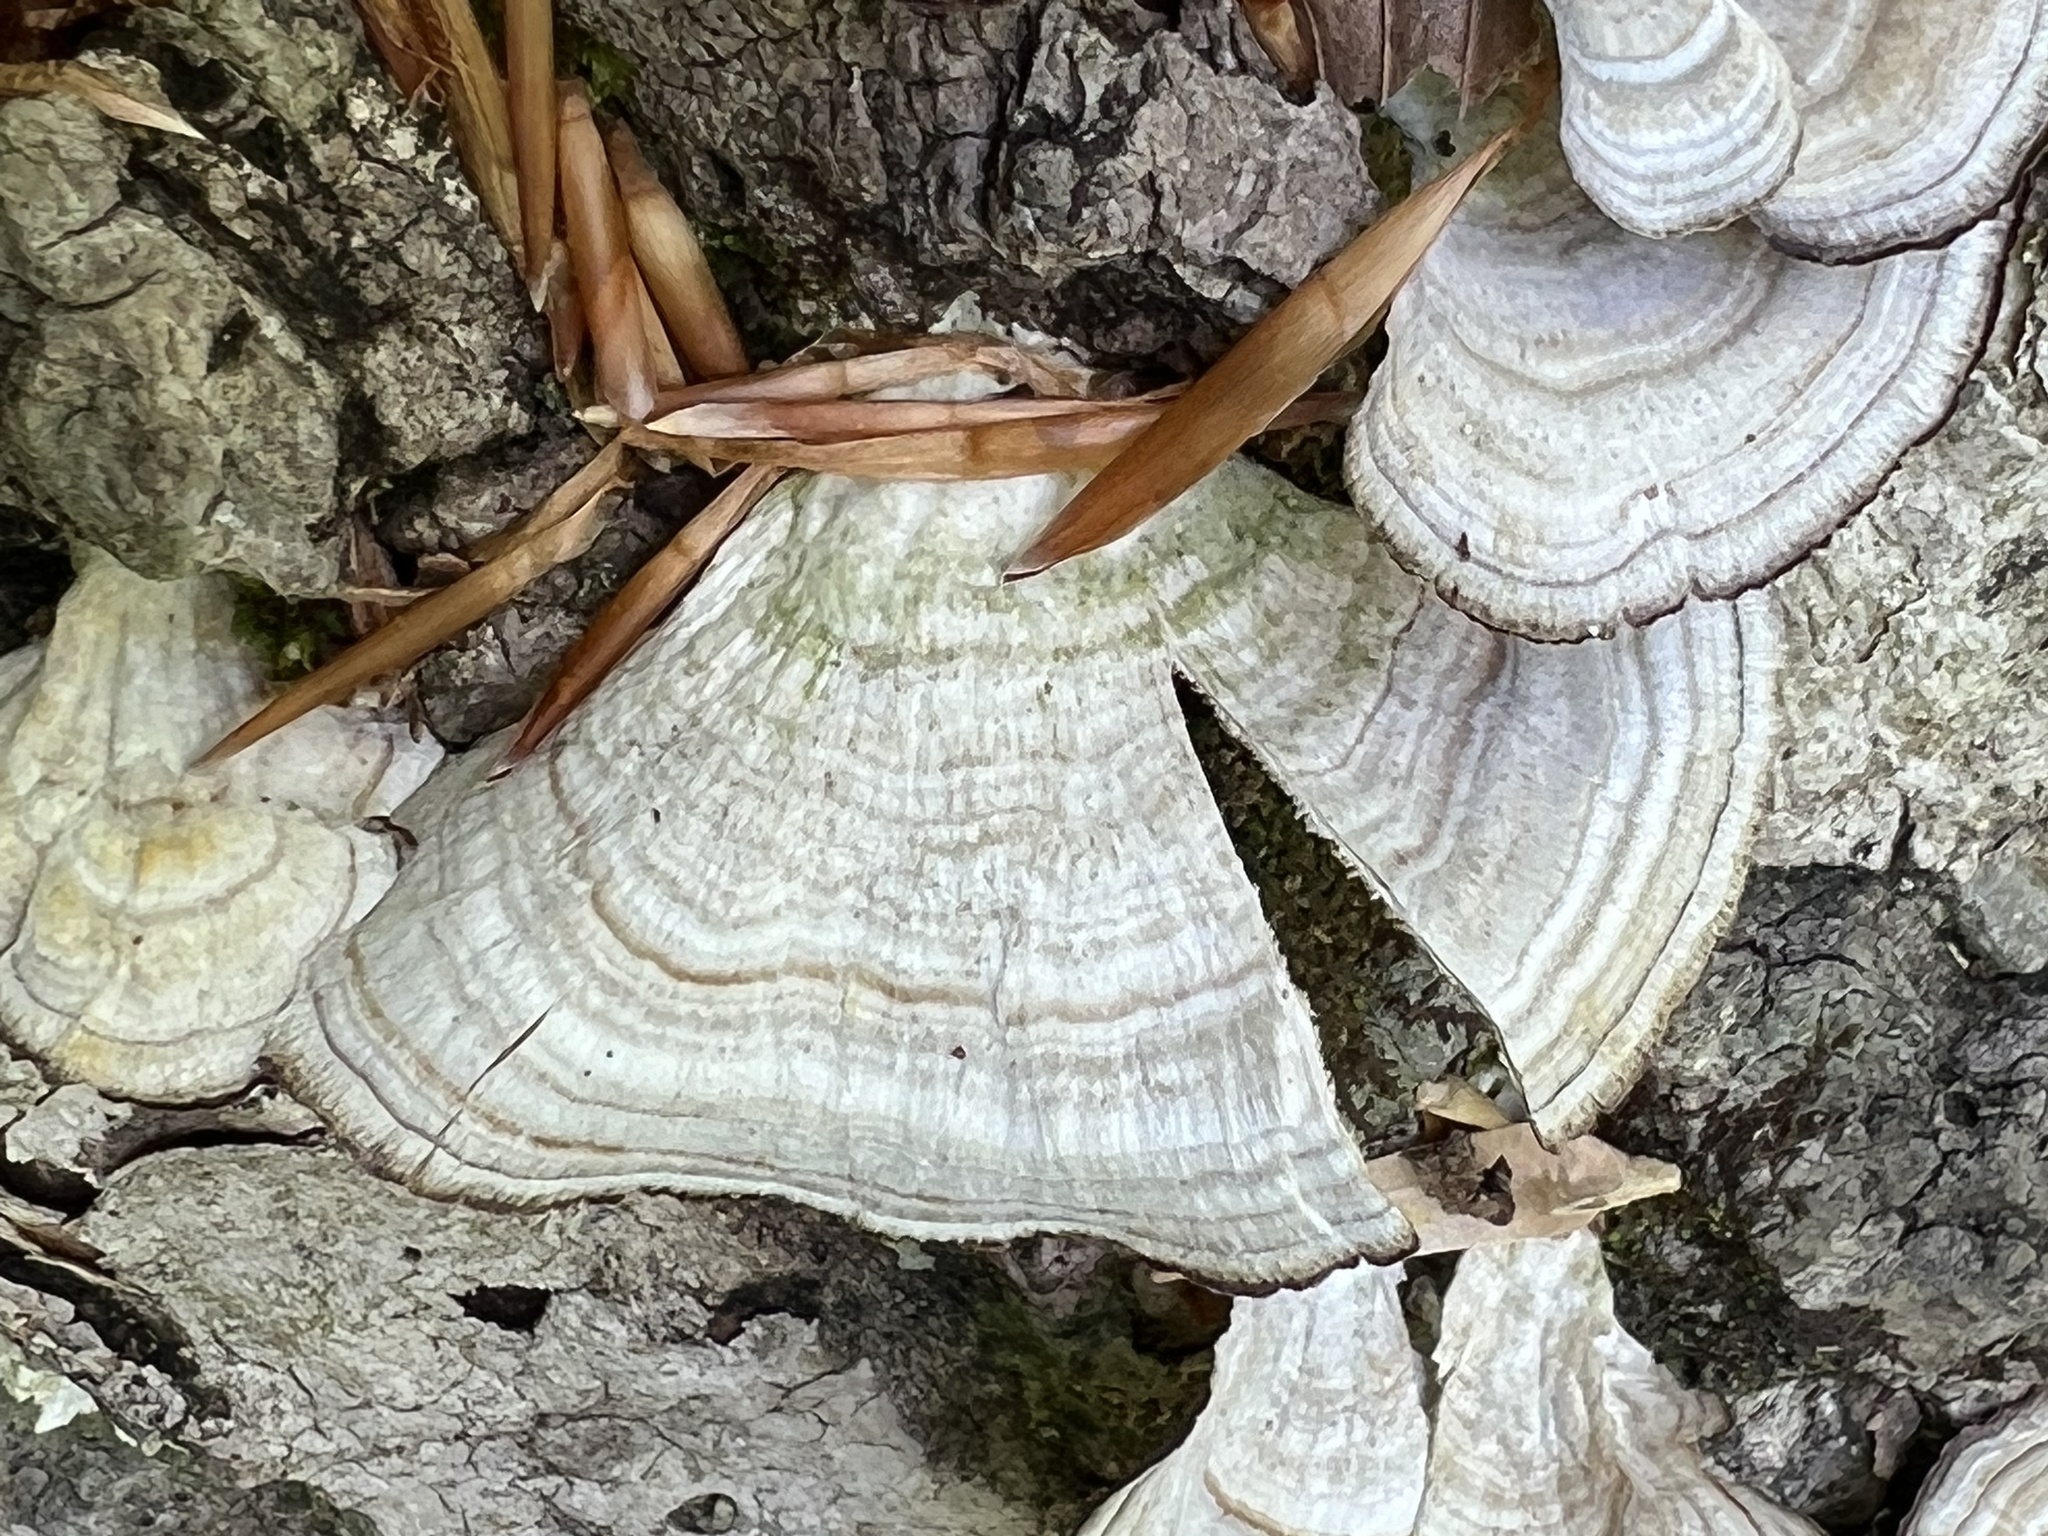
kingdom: Fungi
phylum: Basidiomycota
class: Agaricomycetes
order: Hymenochaetales
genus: Trichaptum
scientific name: Trichaptum biforme
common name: Violet-toothed polypore
